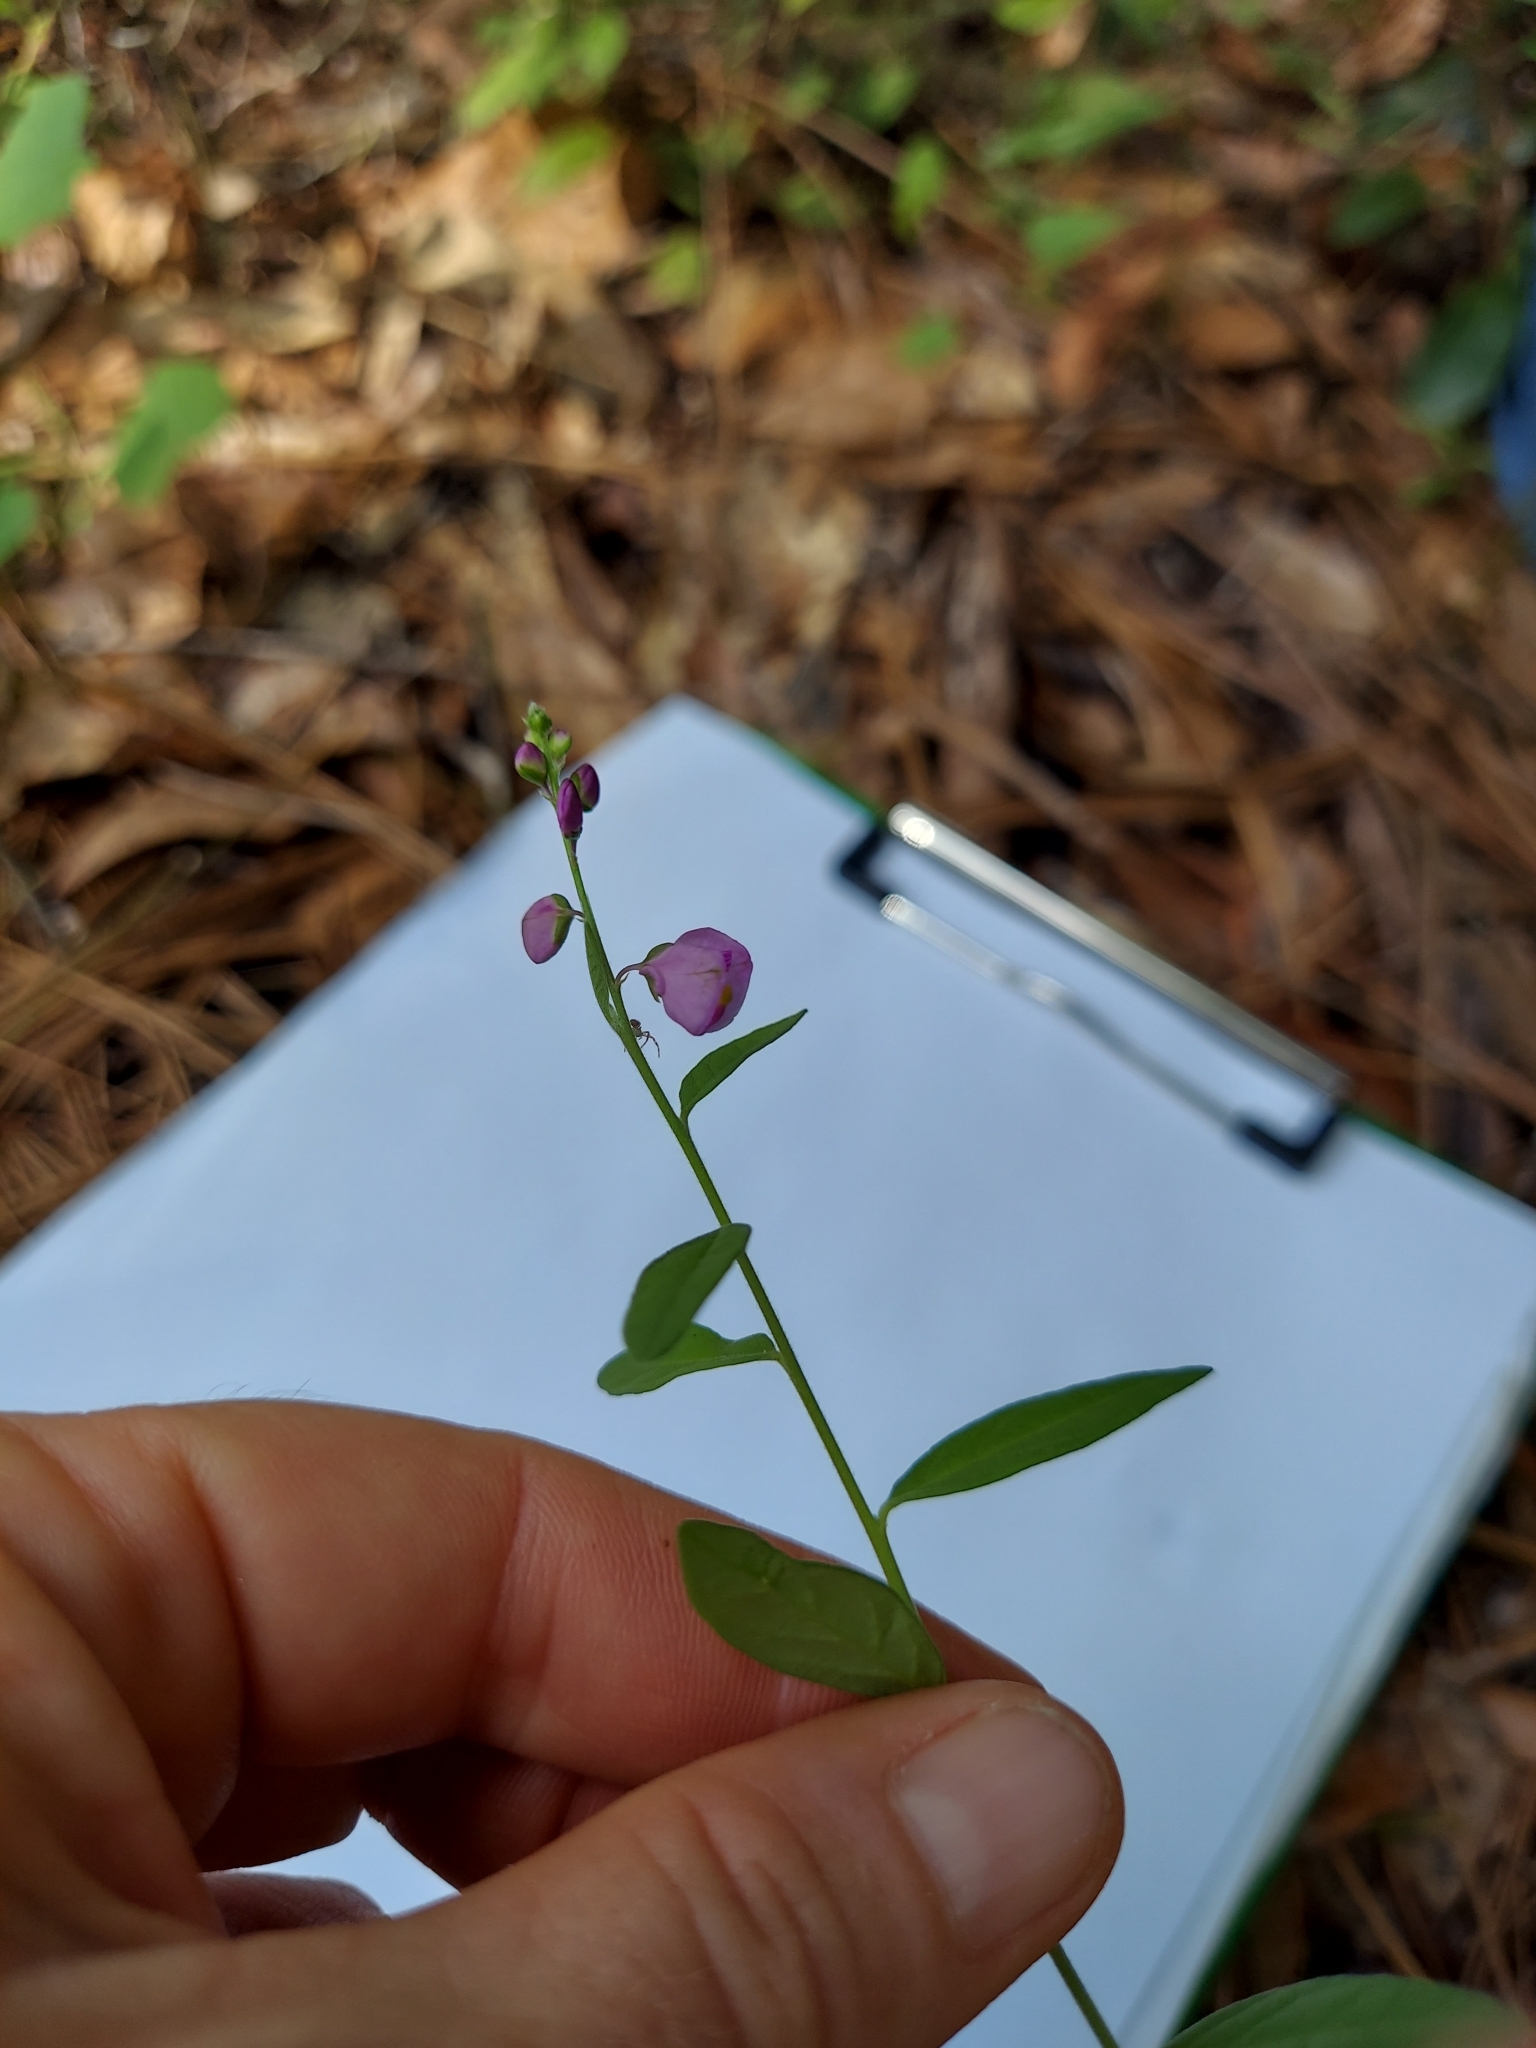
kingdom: Plantae
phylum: Tracheophyta
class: Magnoliopsida
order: Fabales
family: Polygalaceae
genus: Asemeia
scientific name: Asemeia grandiflora
